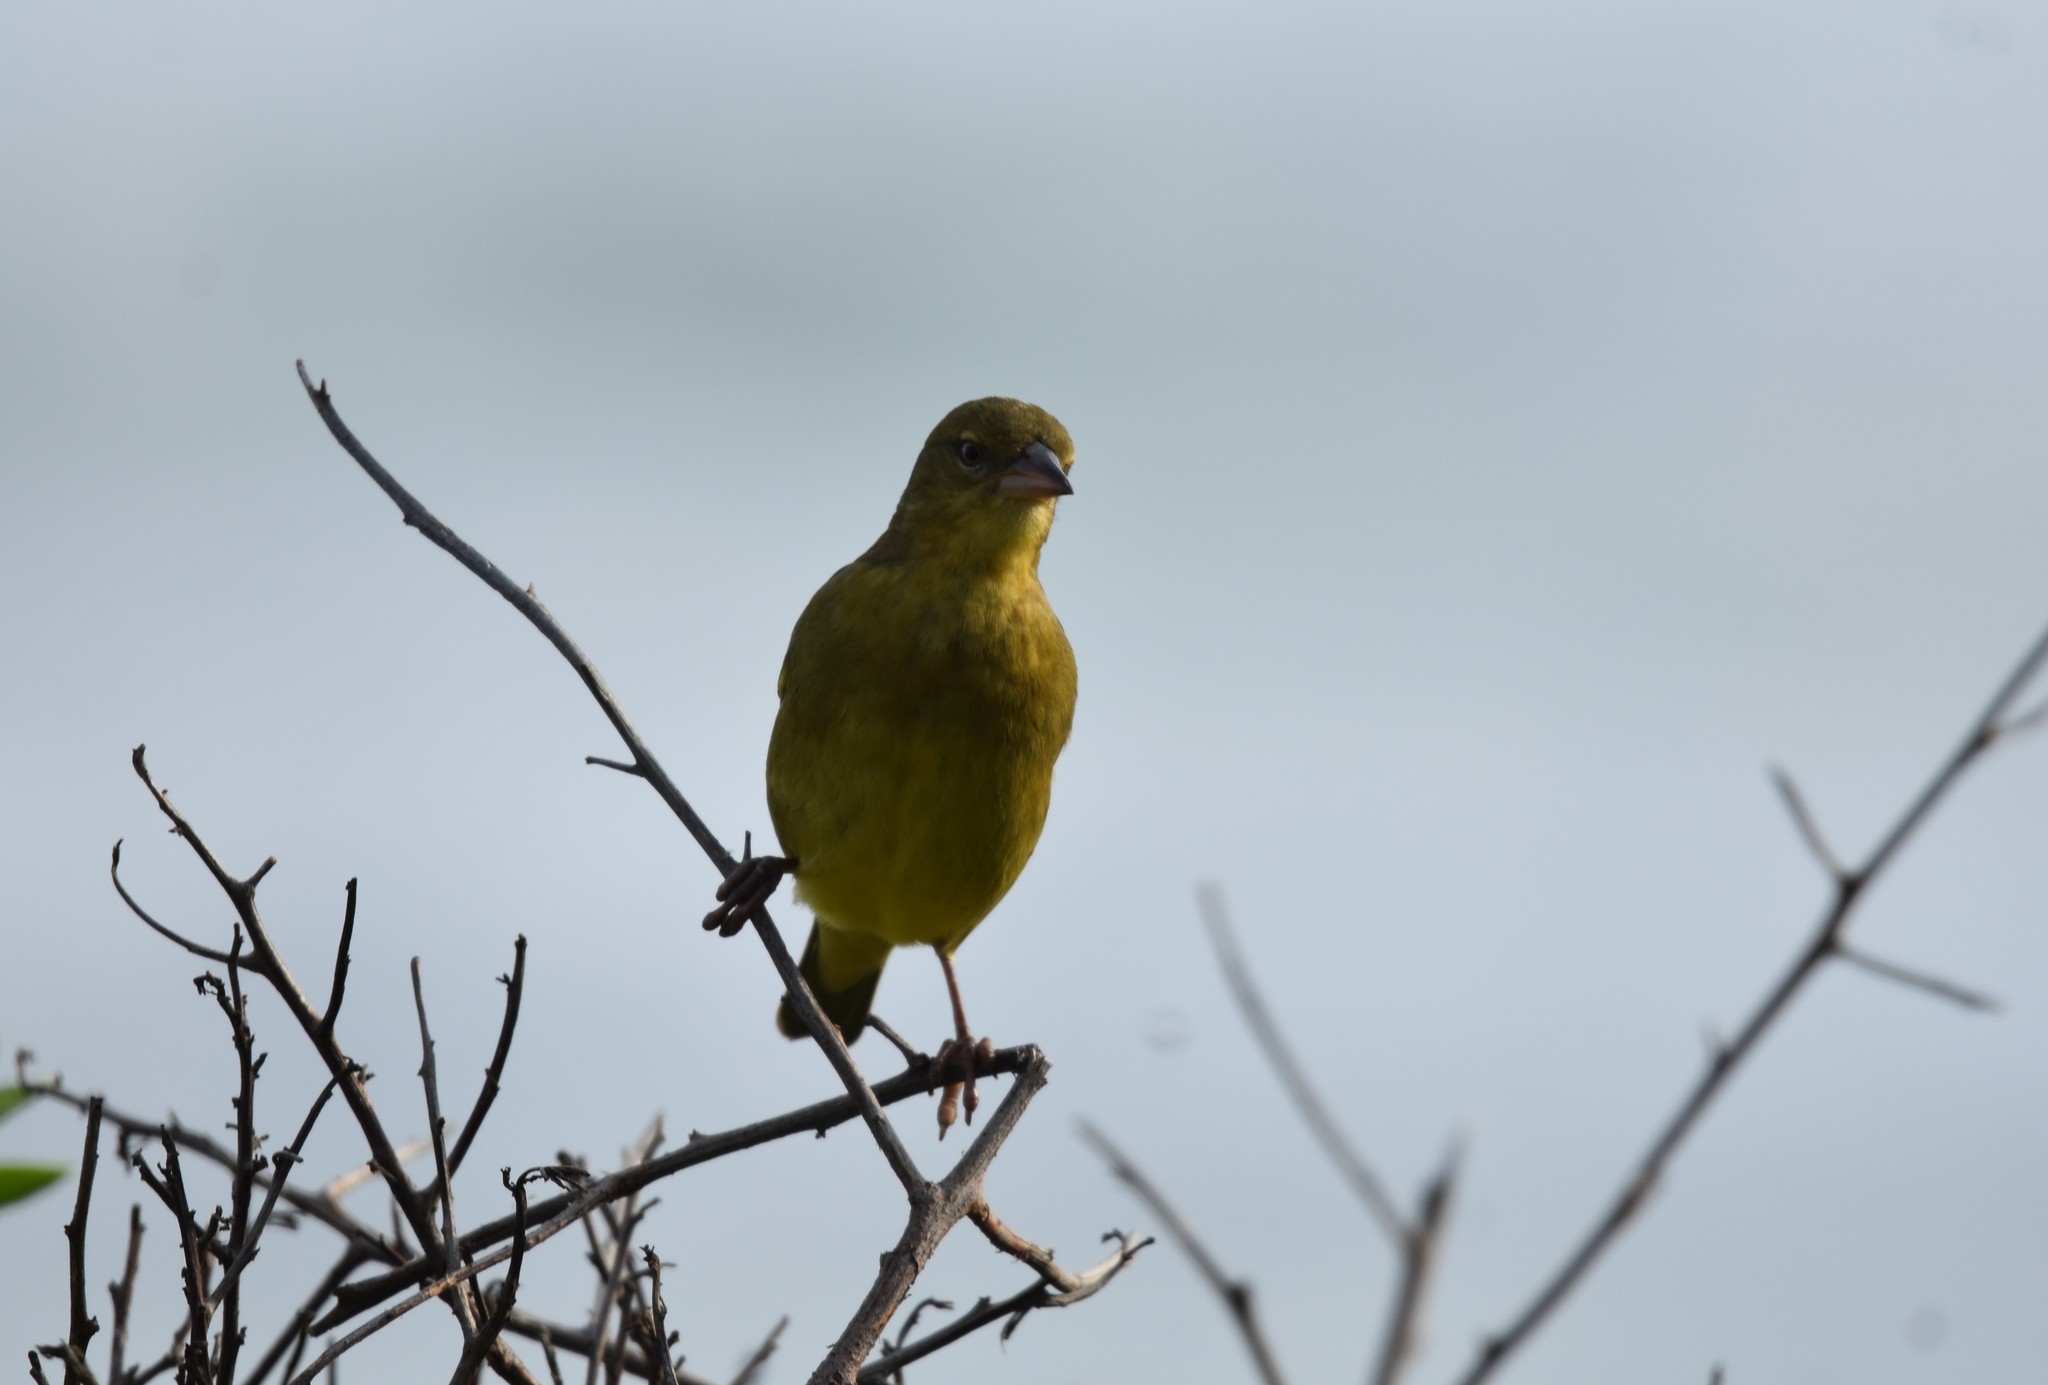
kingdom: Animalia
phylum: Chordata
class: Aves
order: Passeriformes
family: Ploceidae
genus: Ploceus
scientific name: Ploceus capensis
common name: Cape weaver
